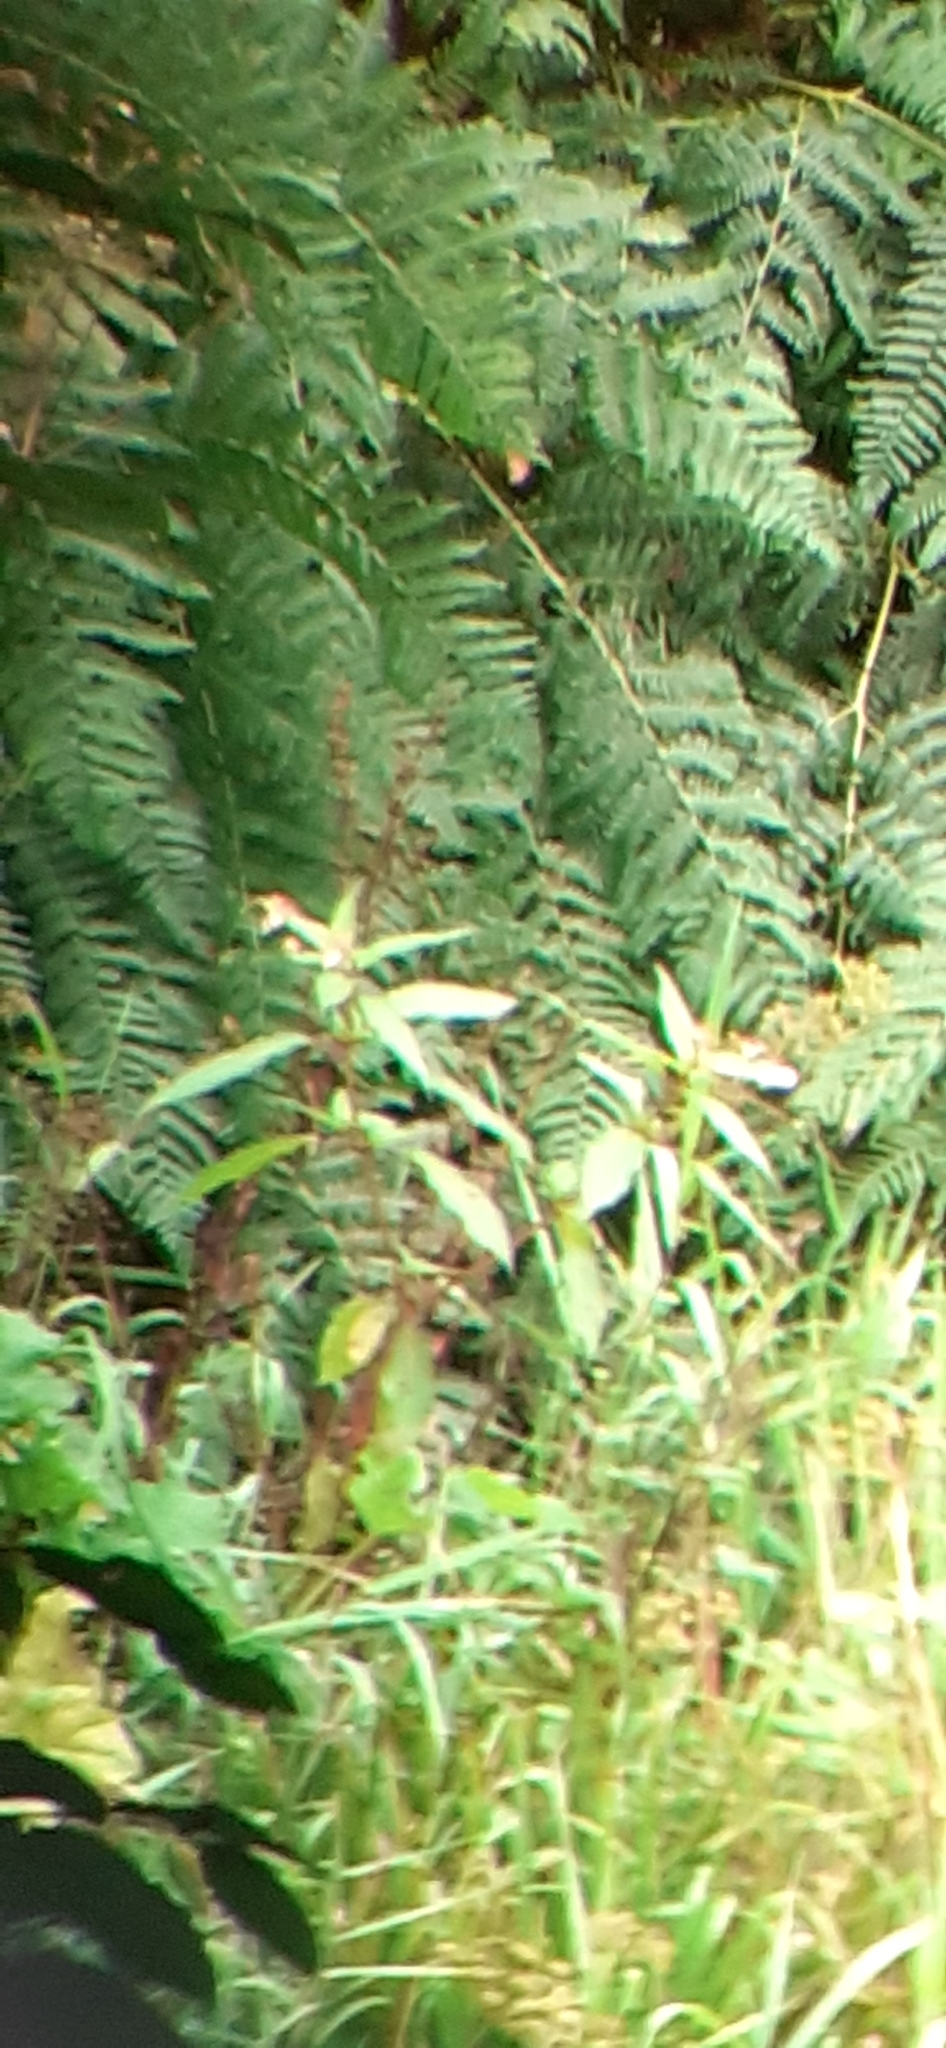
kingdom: Plantae
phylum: Tracheophyta
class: Magnoliopsida
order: Ericales
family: Balsaminaceae
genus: Impatiens
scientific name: Impatiens glandulifera
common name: Himalayan balsam
